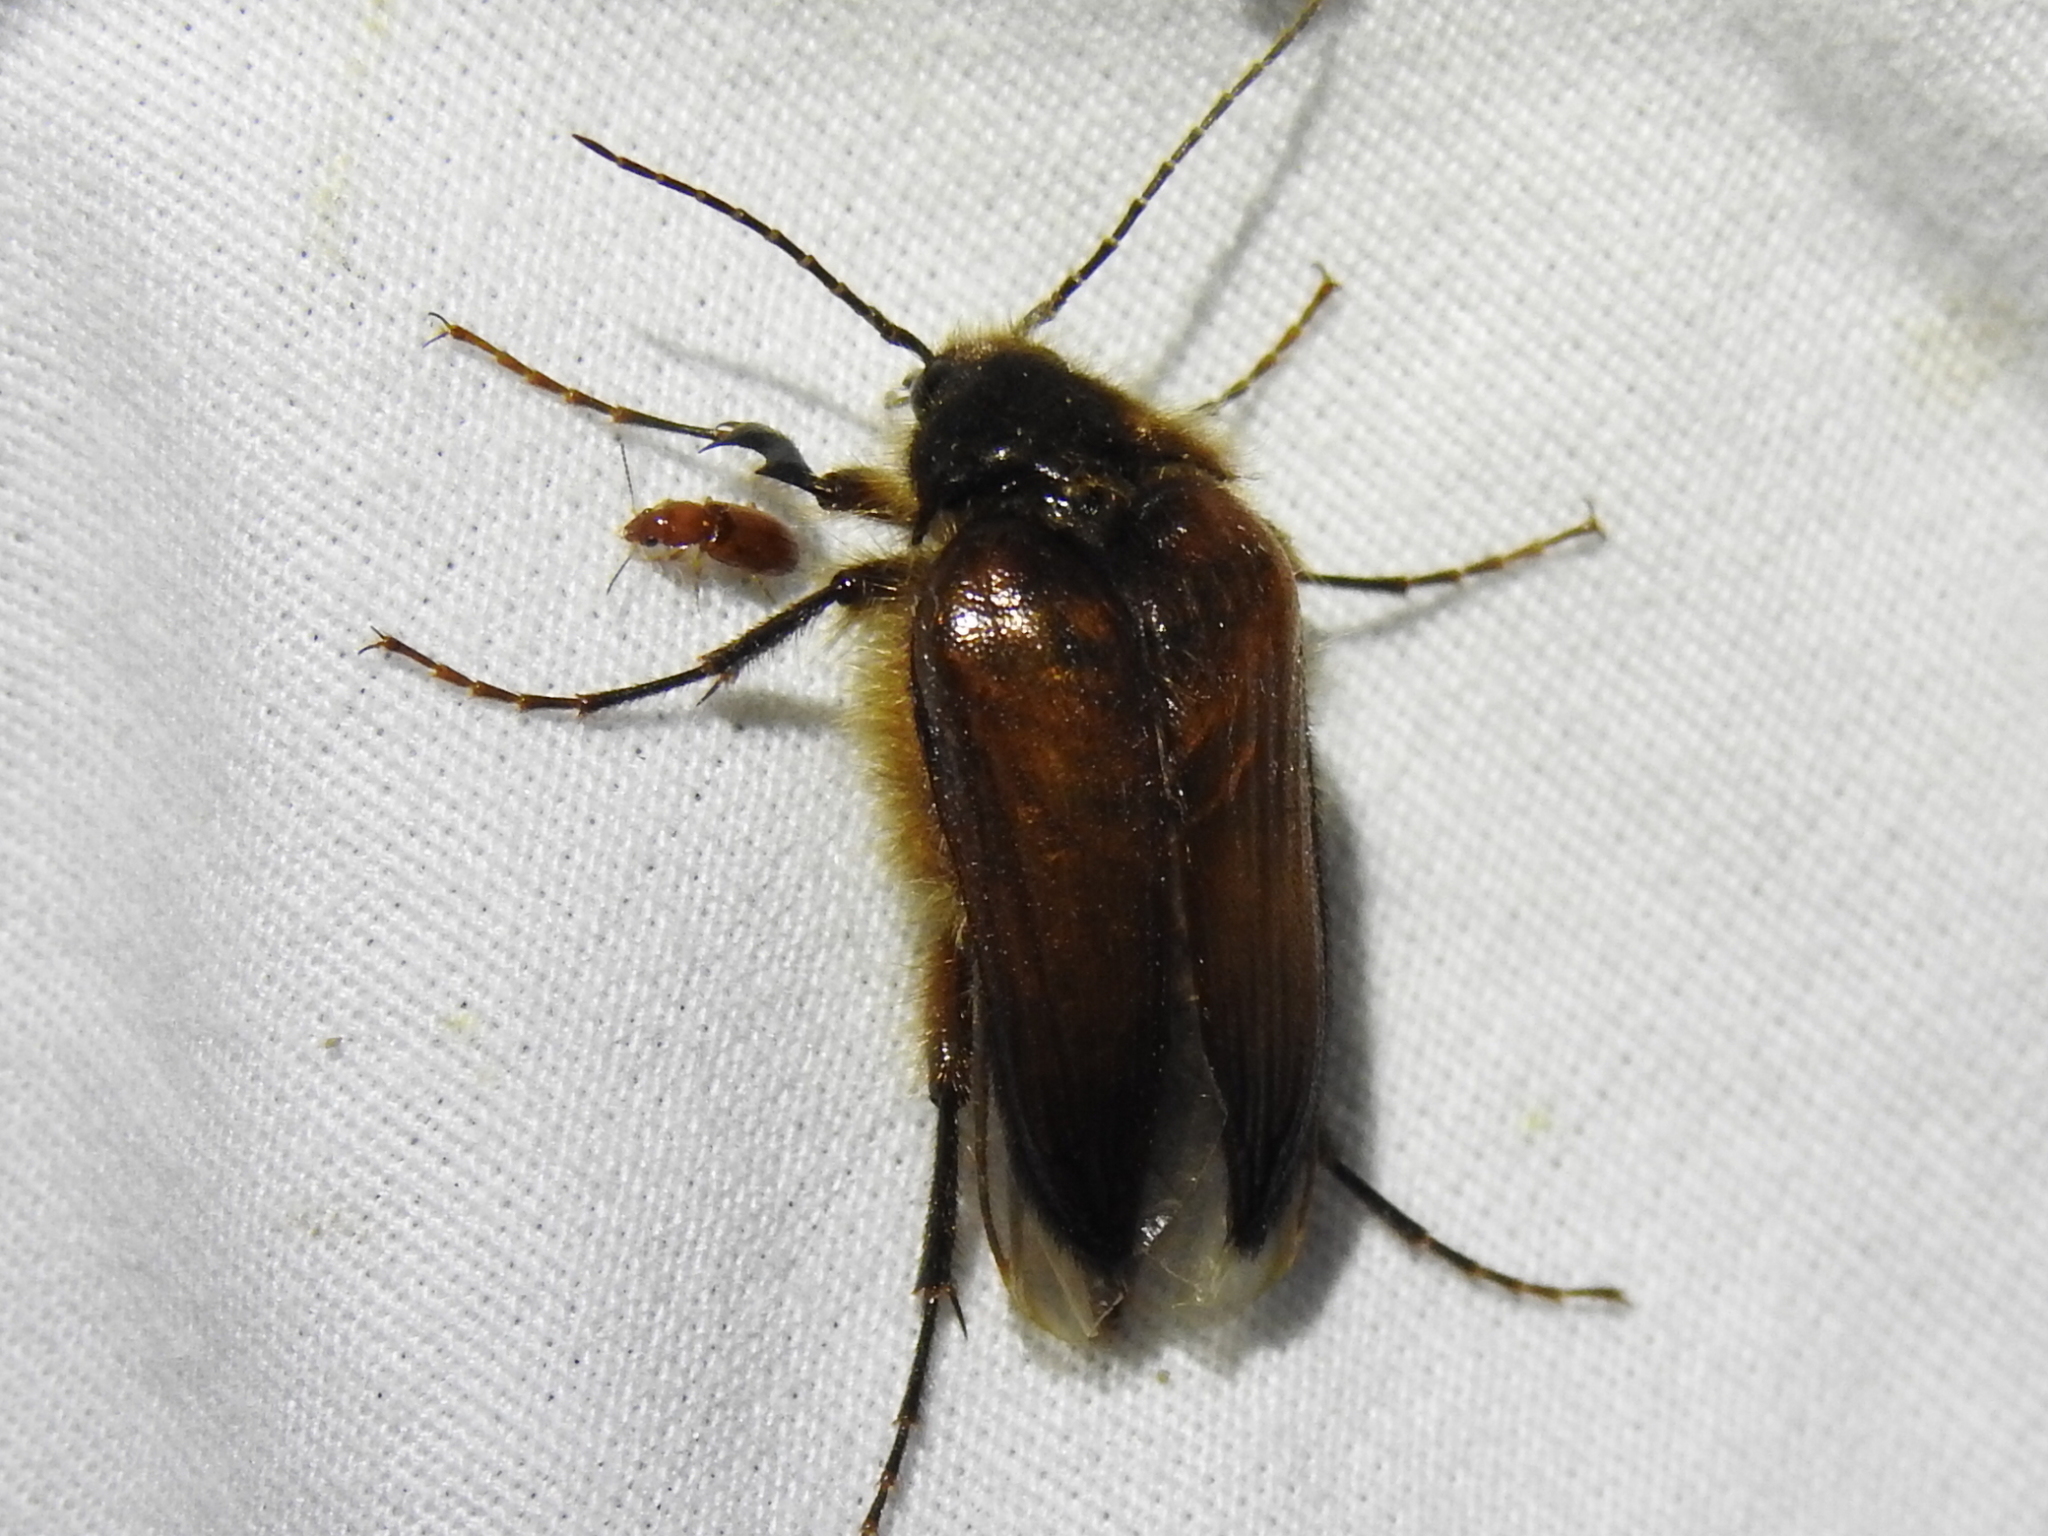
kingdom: Animalia
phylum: Arthropoda
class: Insecta
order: Coleoptera
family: Elateridae
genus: Scaptolenus
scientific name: Scaptolenus
